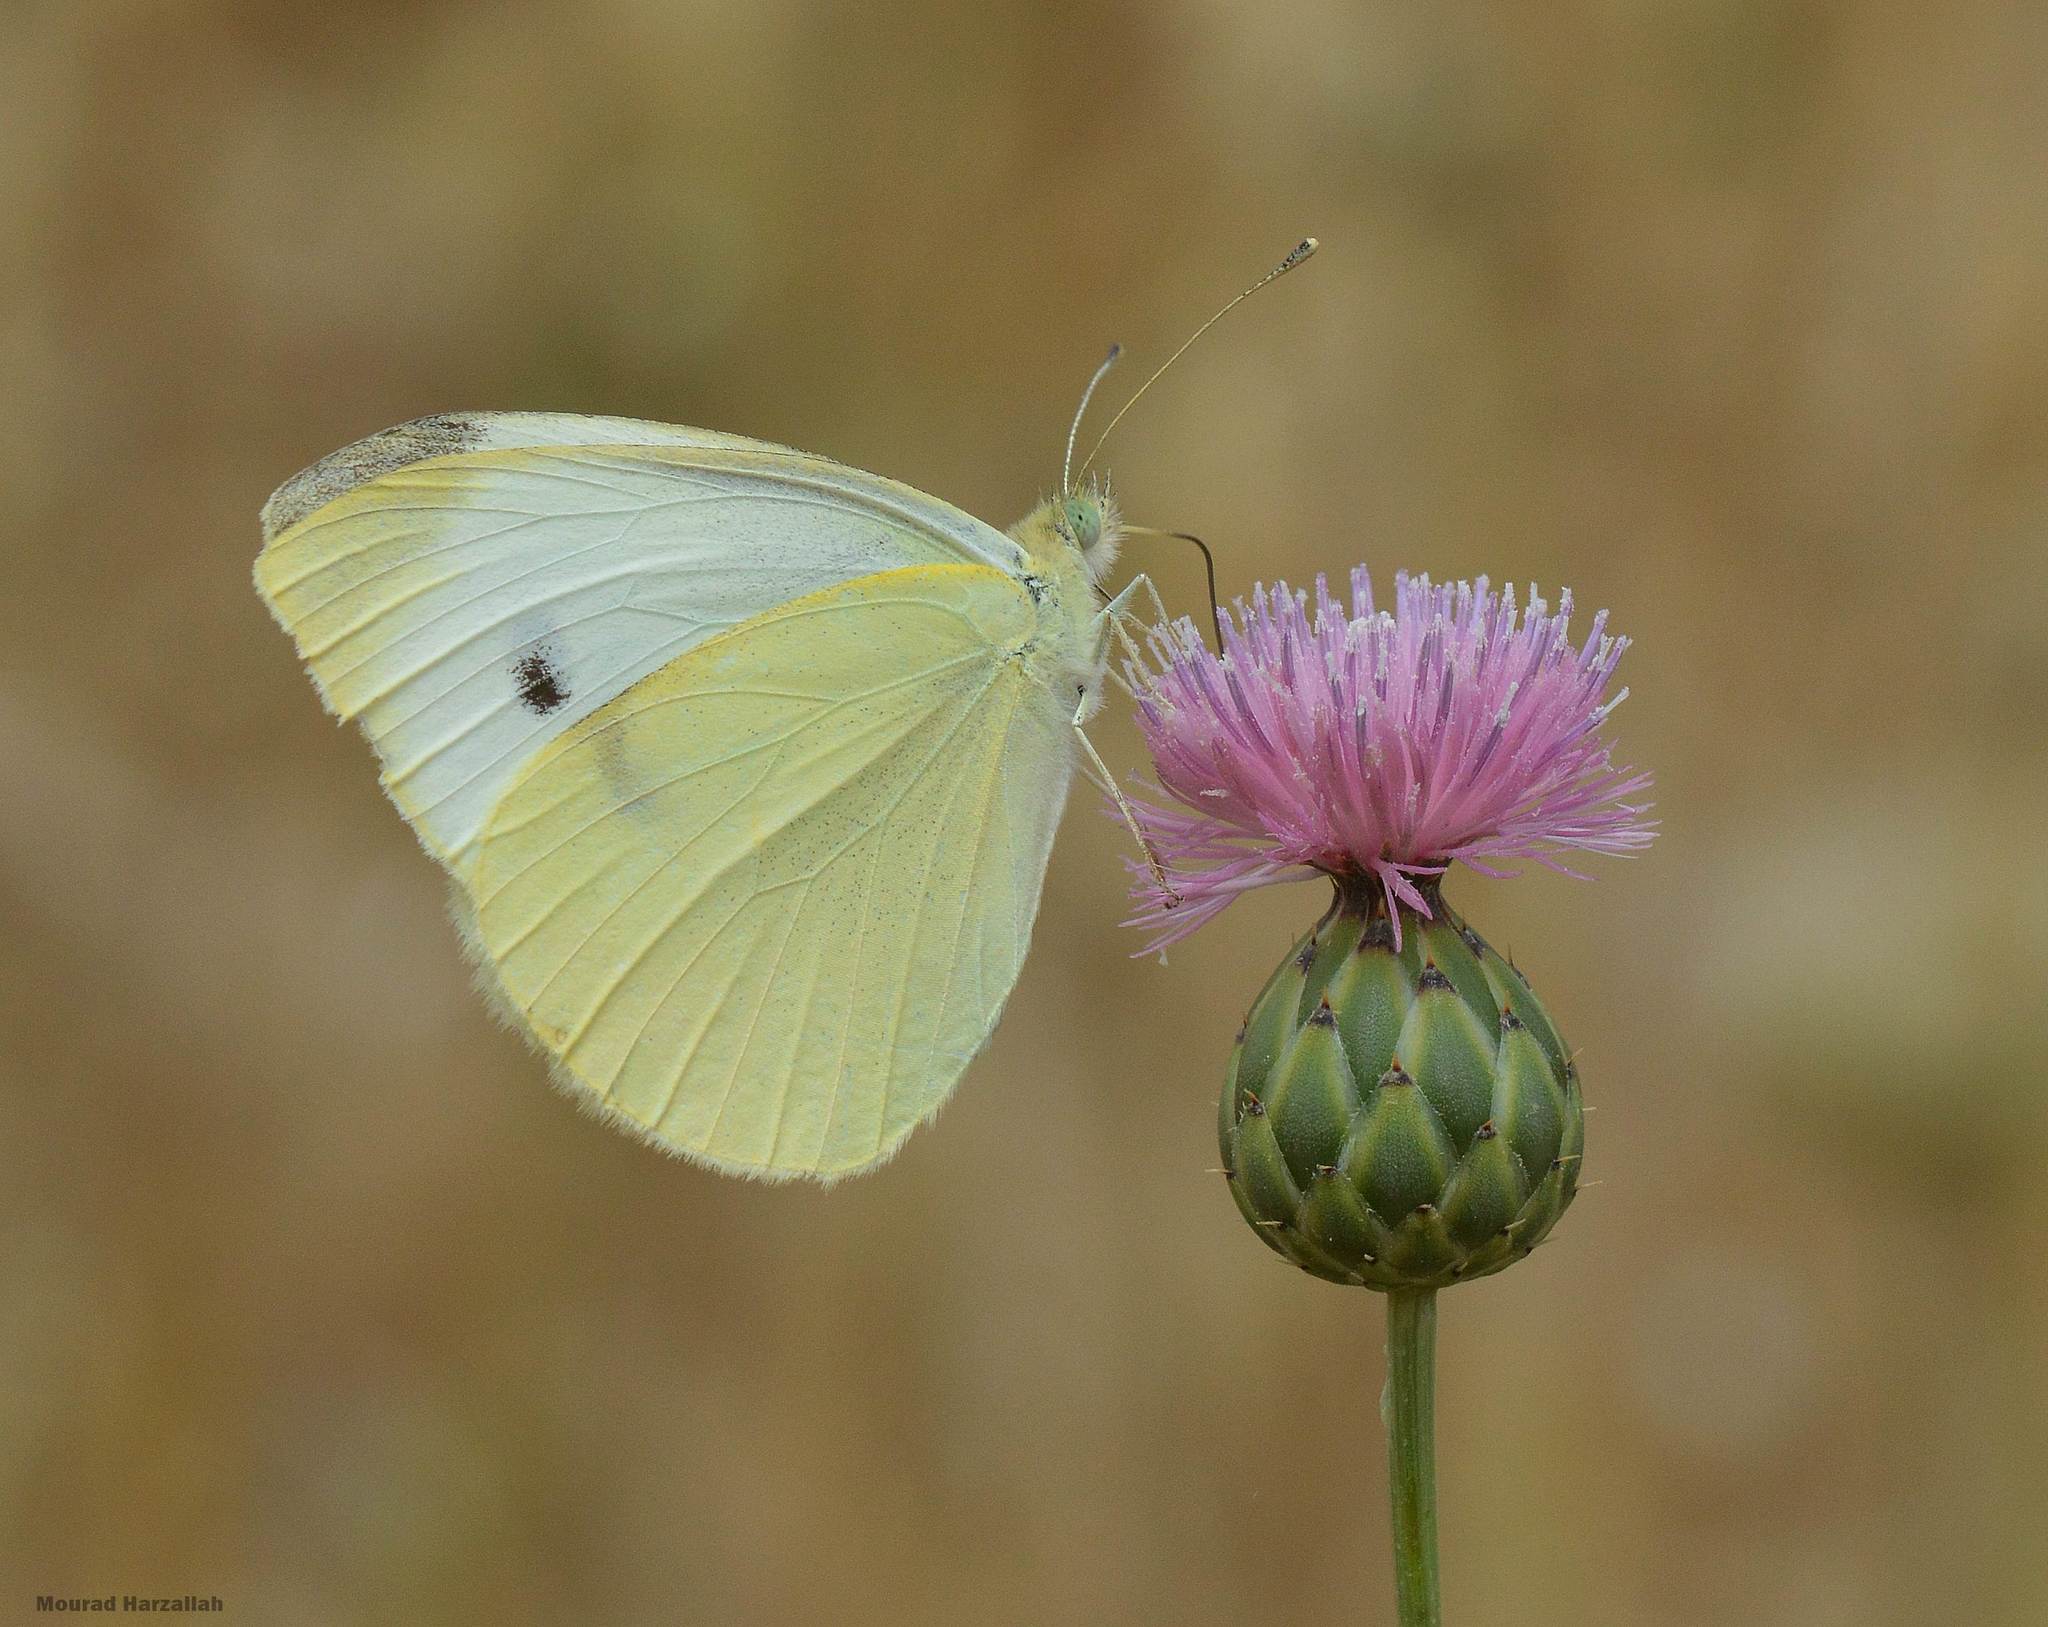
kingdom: Animalia
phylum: Arthropoda
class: Insecta
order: Lepidoptera
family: Pieridae
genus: Pieris
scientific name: Pieris rapae
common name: Small white
